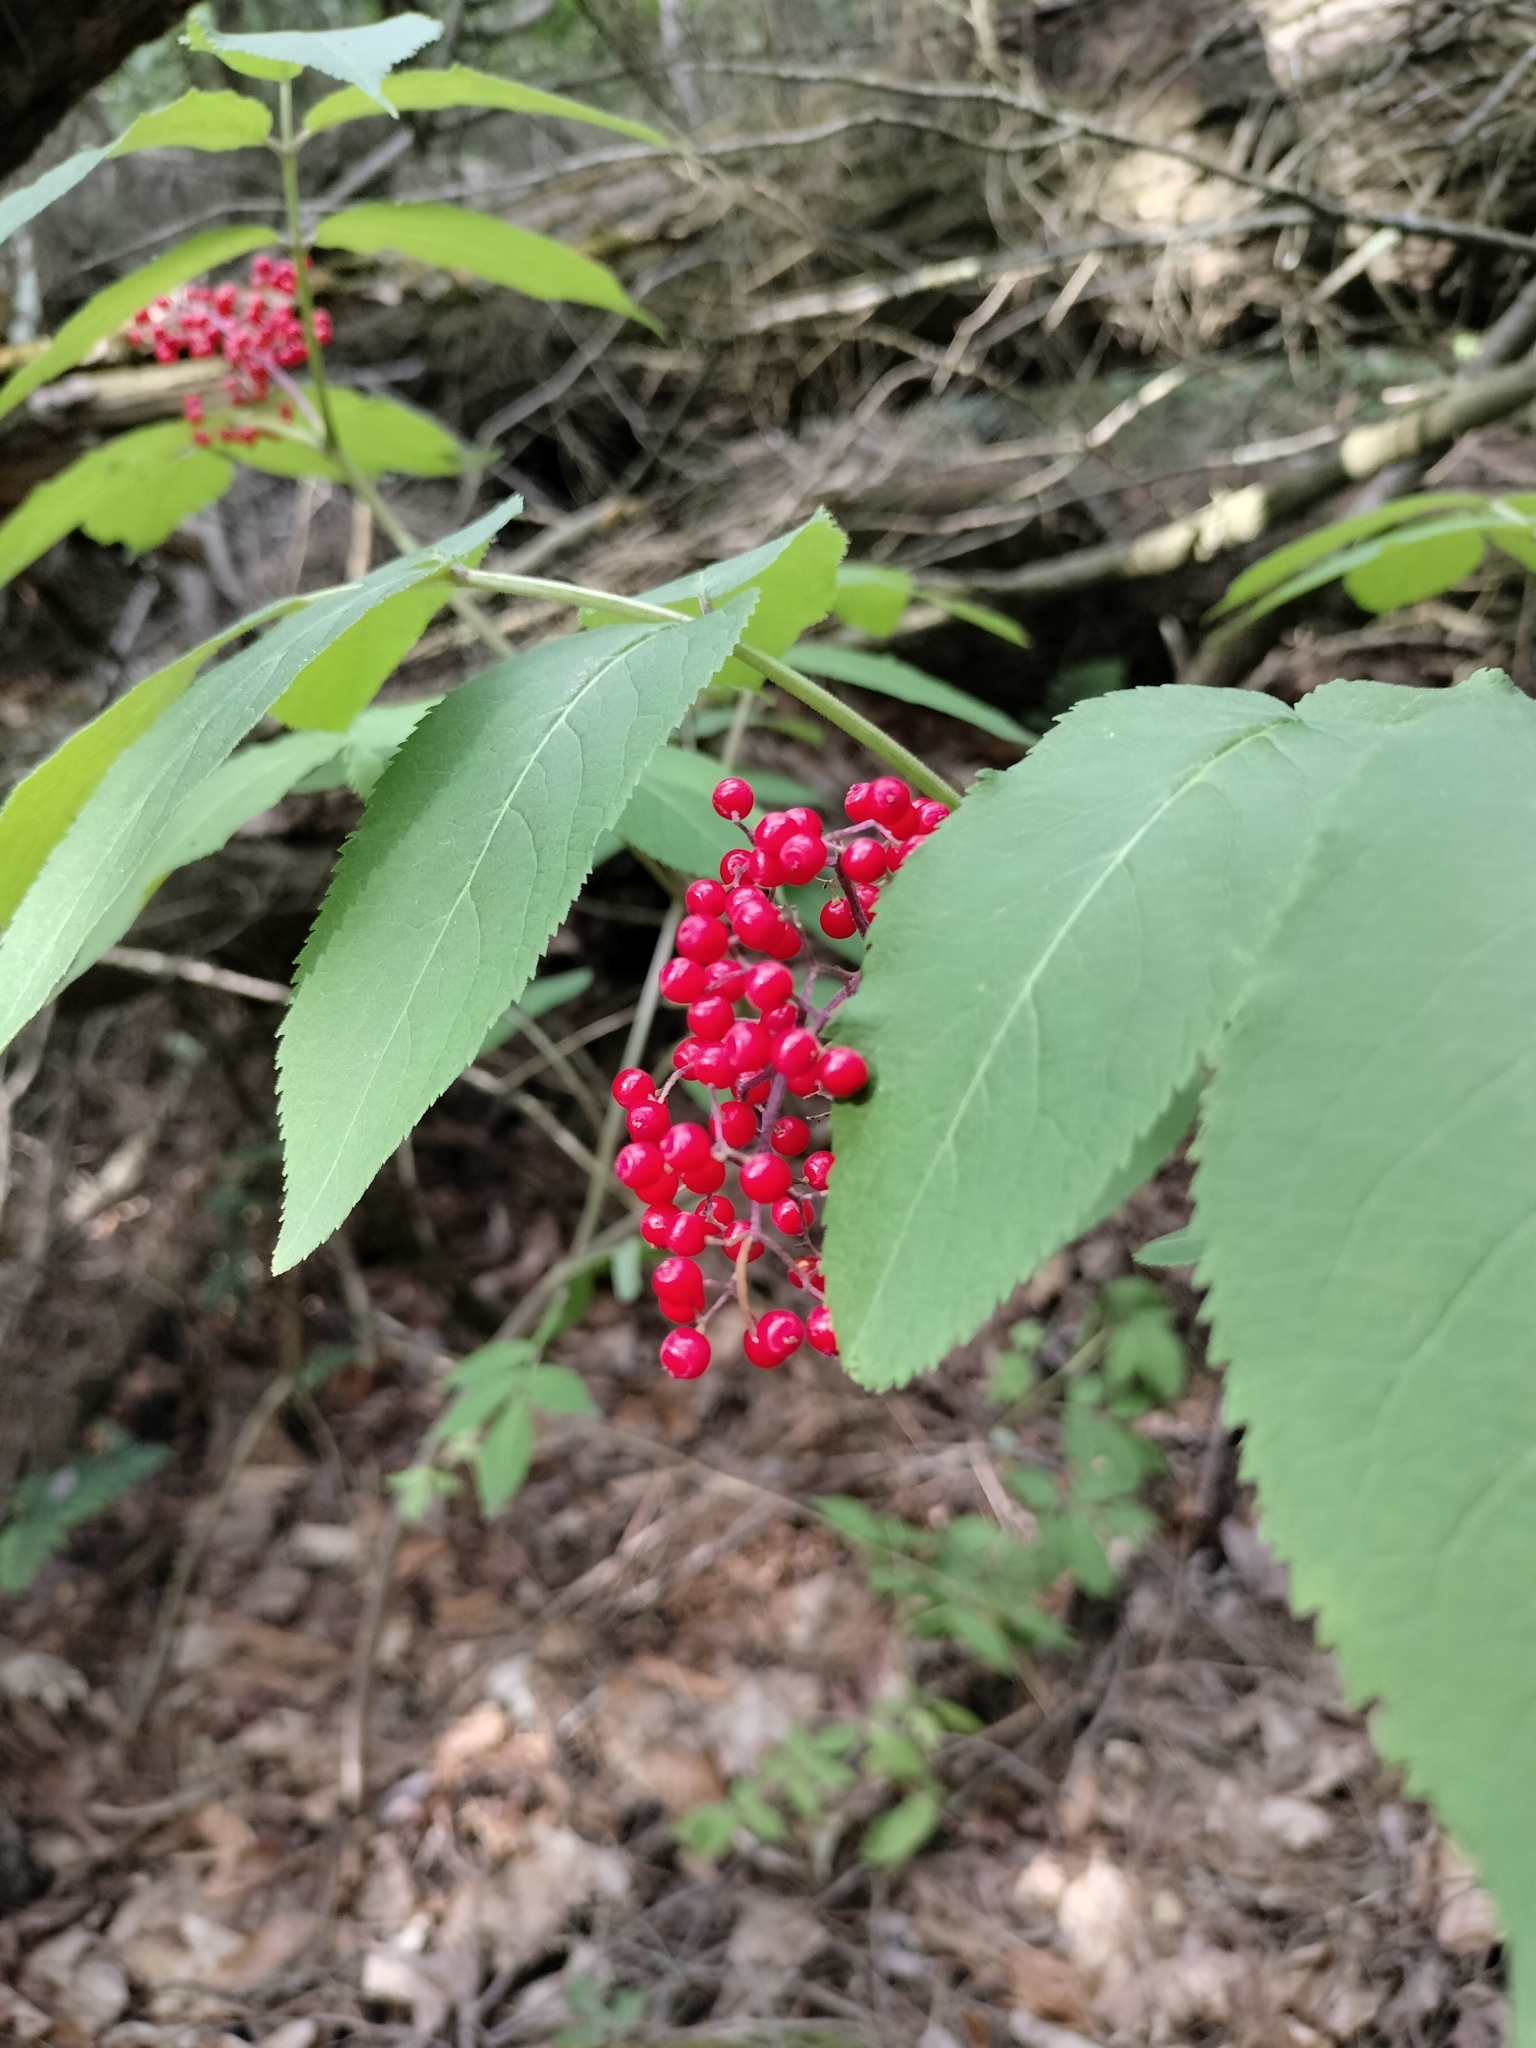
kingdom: Plantae
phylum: Tracheophyta
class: Magnoliopsida
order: Dipsacales
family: Viburnaceae
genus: Sambucus
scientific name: Sambucus racemosa
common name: Red-berried elder
